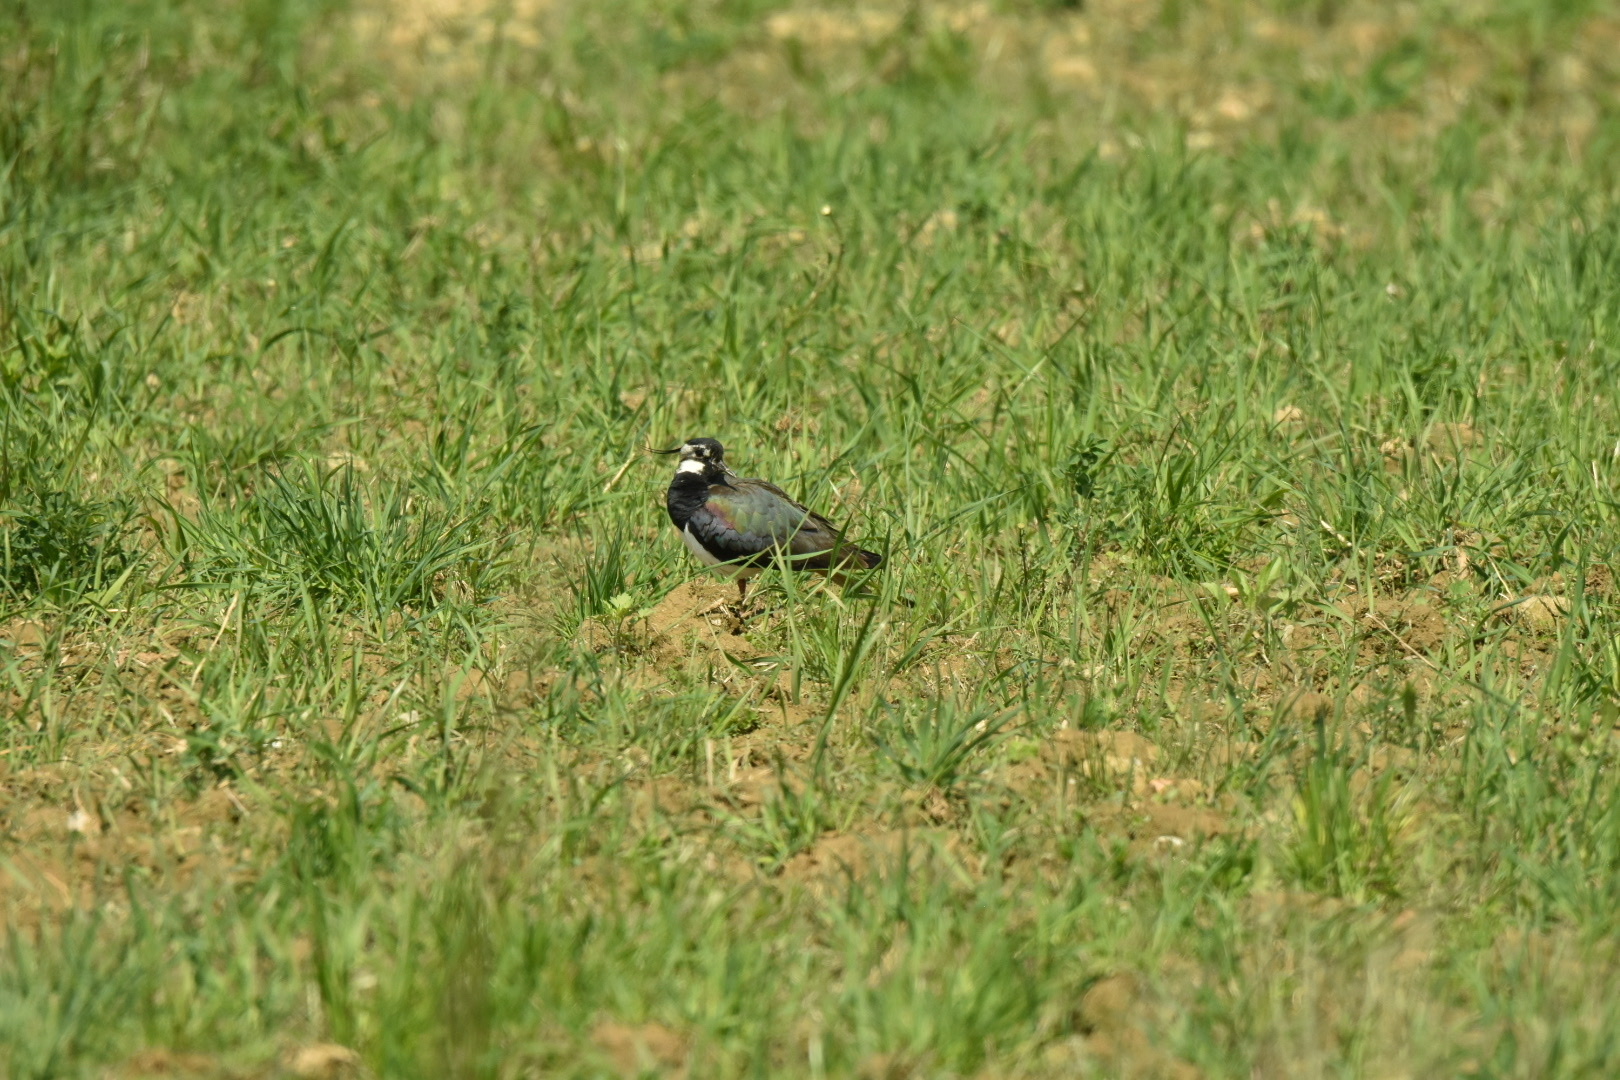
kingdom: Animalia
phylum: Chordata
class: Aves
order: Charadriiformes
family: Charadriidae
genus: Vanellus
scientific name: Vanellus vanellus
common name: Northern lapwing
